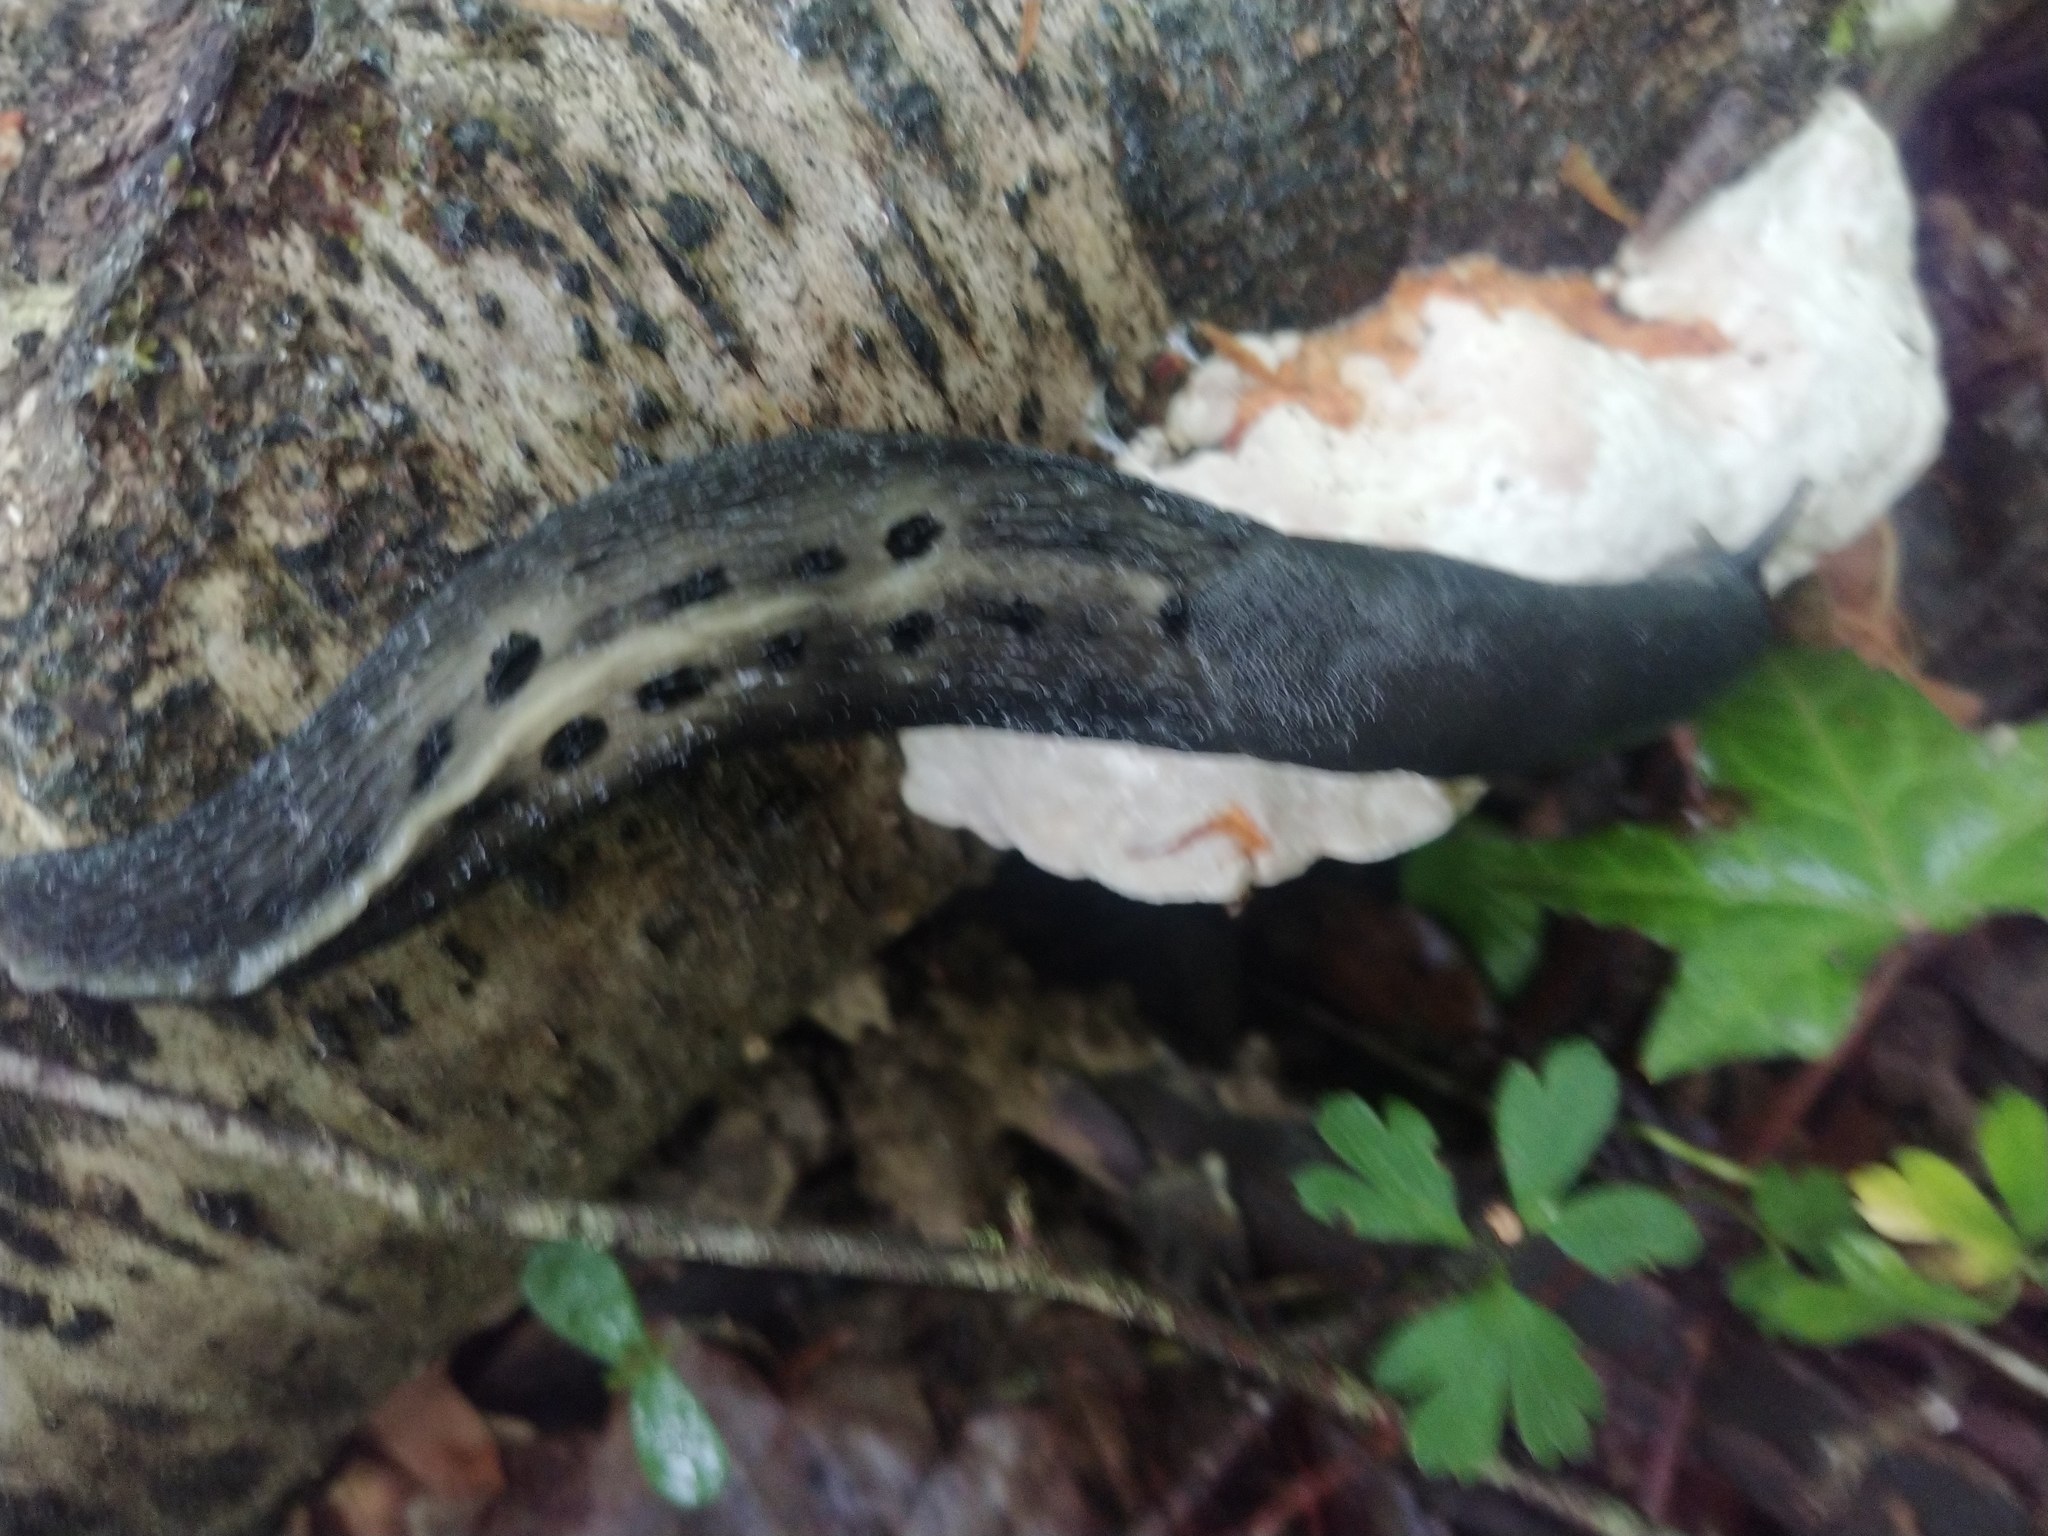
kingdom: Animalia
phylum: Mollusca
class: Gastropoda
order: Stylommatophora
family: Limacidae
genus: Limax
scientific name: Limax cinereoniger
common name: Ash-black slug
